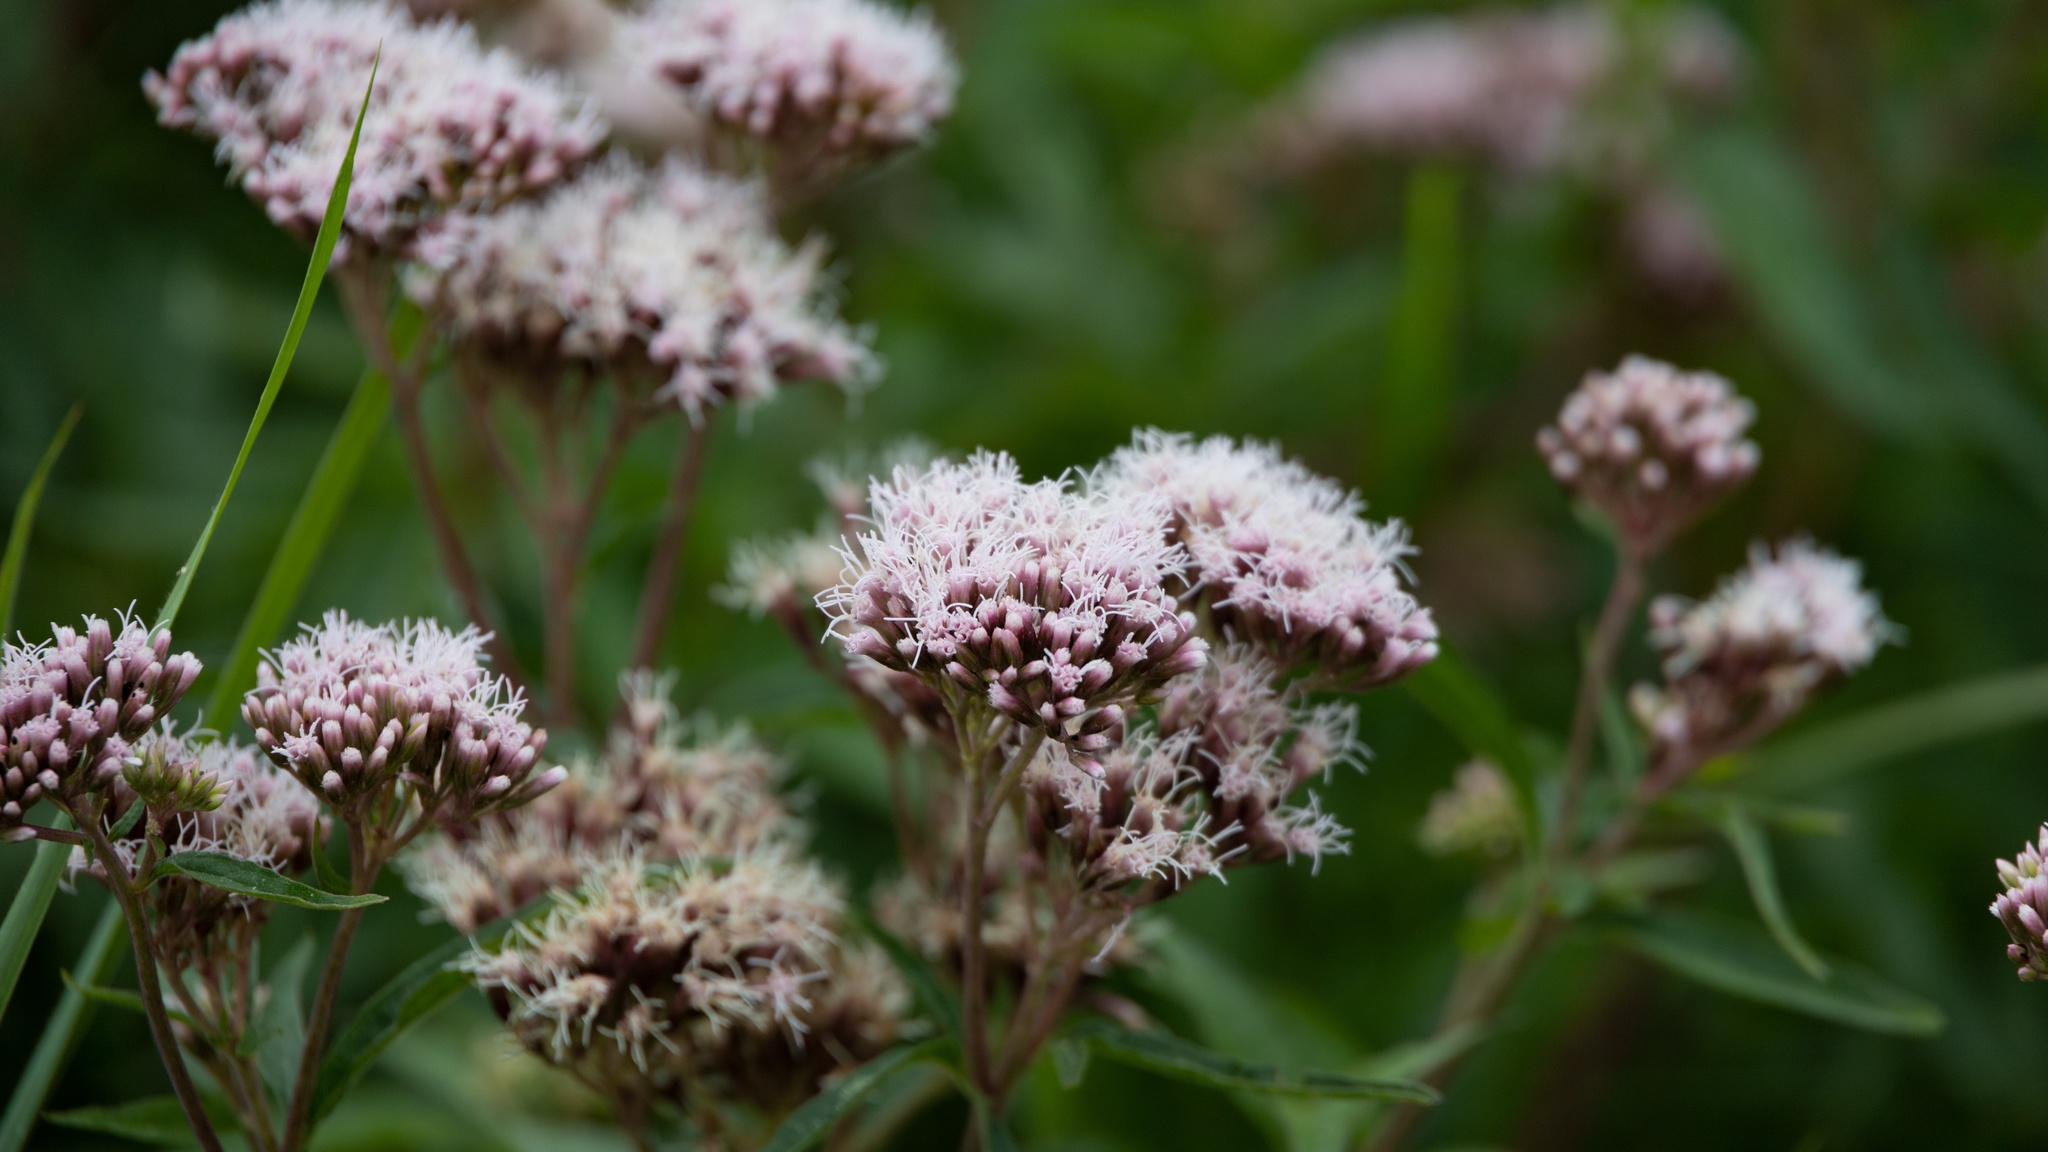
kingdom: Plantae
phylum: Tracheophyta
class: Magnoliopsida
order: Asterales
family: Asteraceae
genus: Eupatorium
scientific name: Eupatorium cannabinum
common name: Hemp-agrimony
